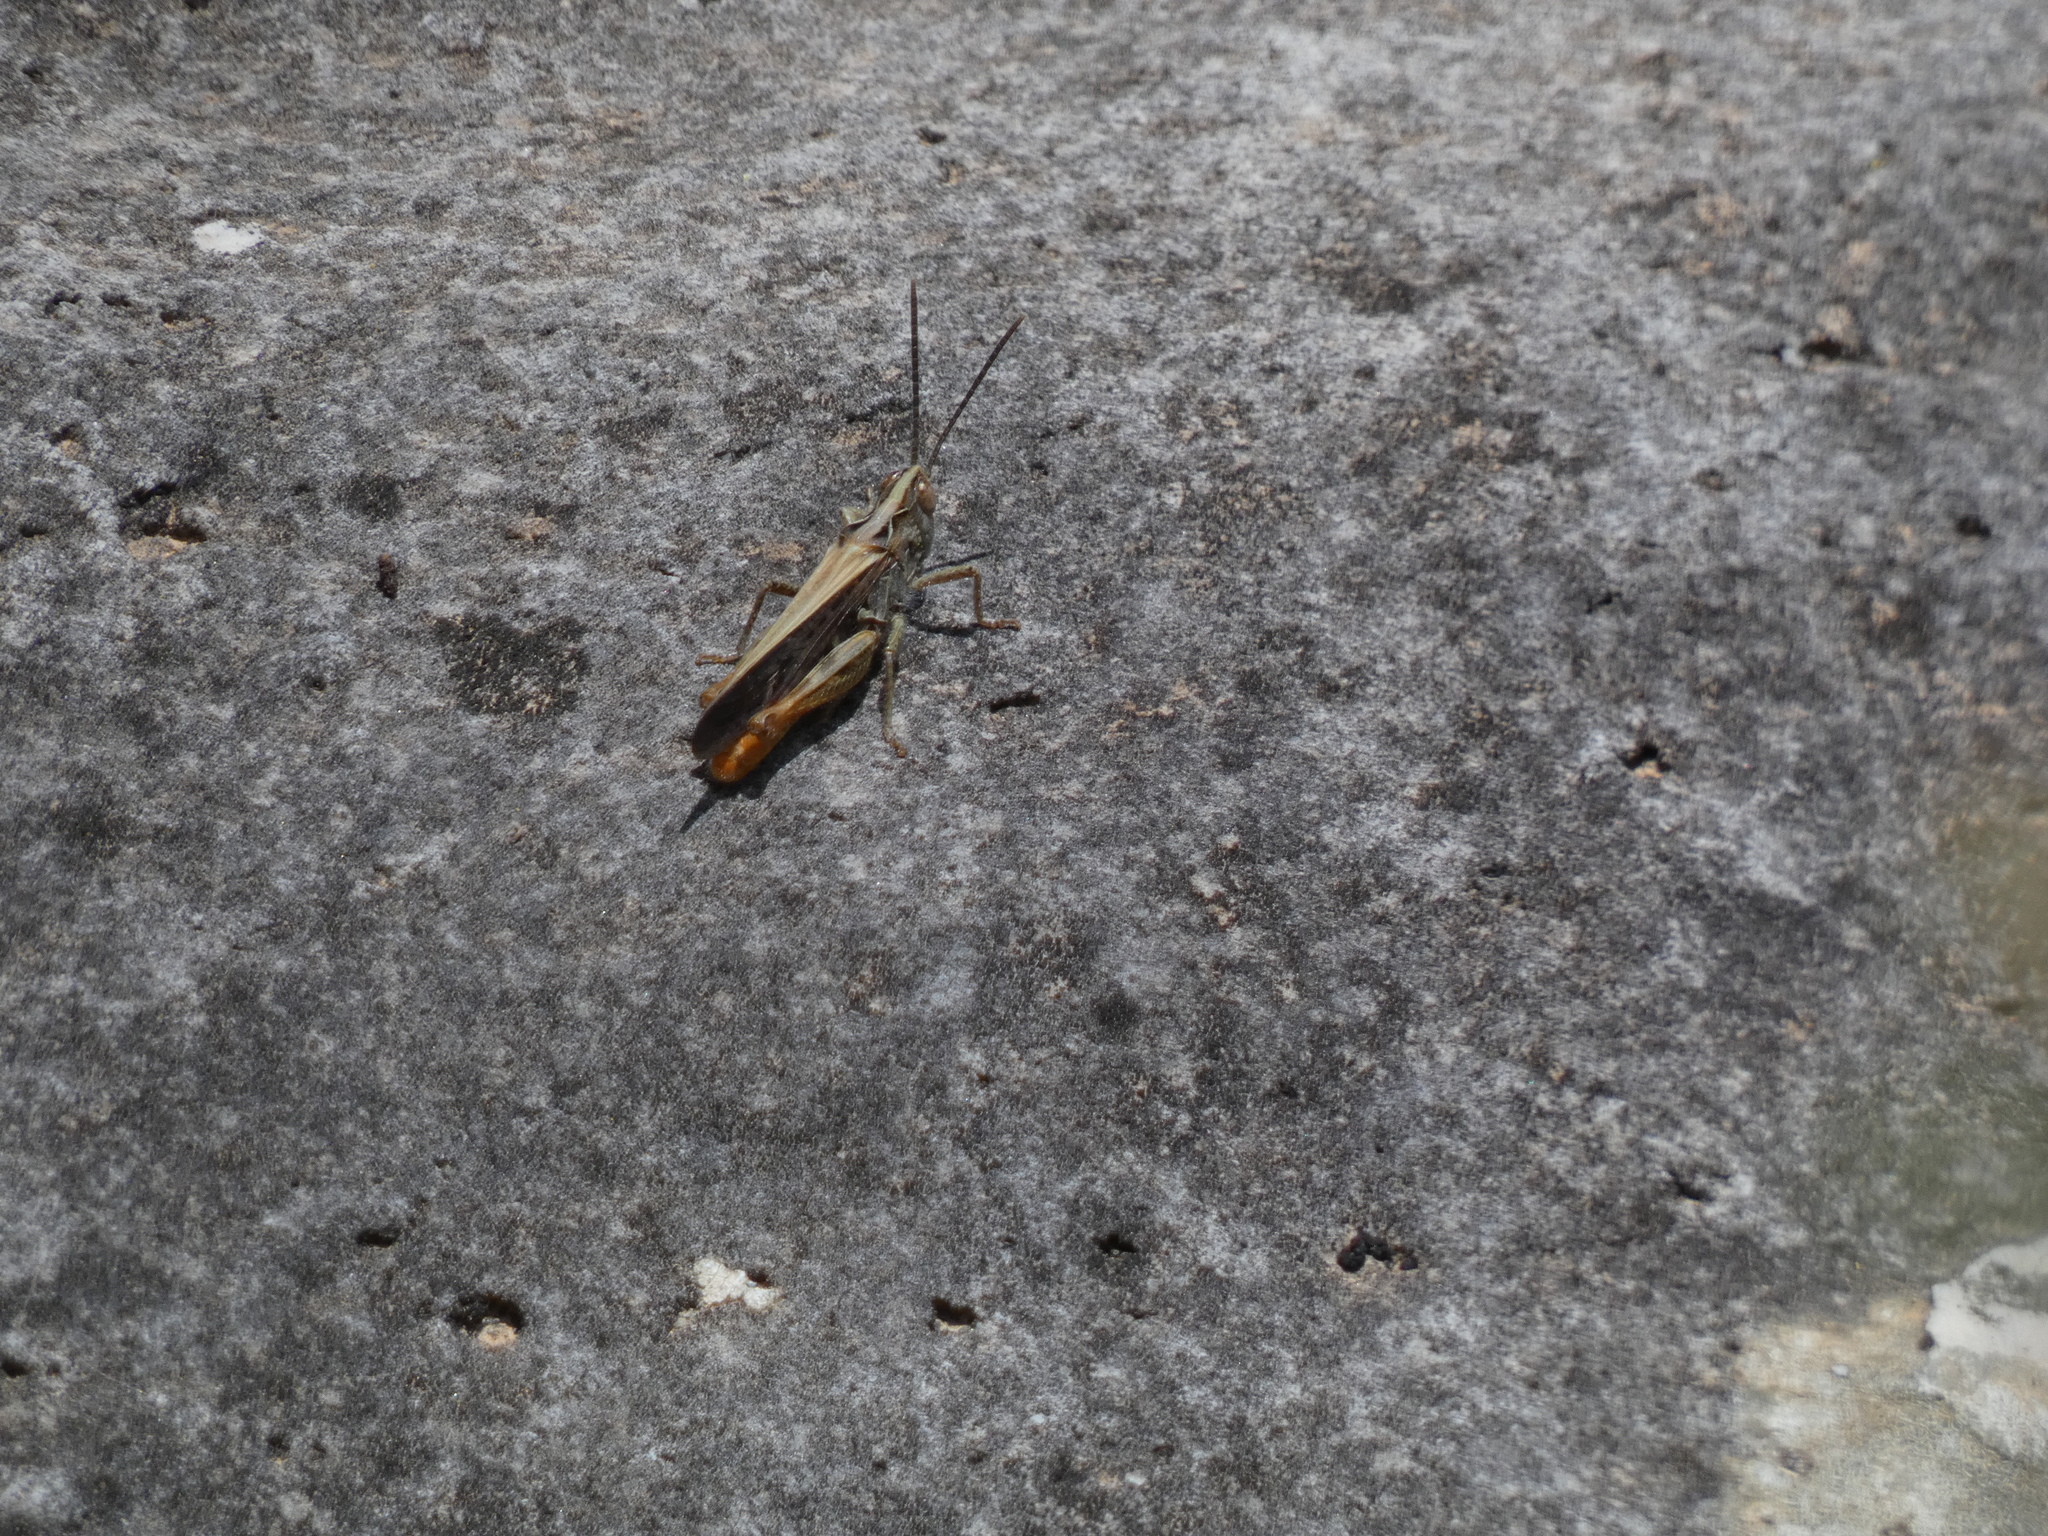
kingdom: Animalia
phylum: Arthropoda
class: Insecta
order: Orthoptera
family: Acrididae
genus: Chorthippus
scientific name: Chorthippus maritimus
